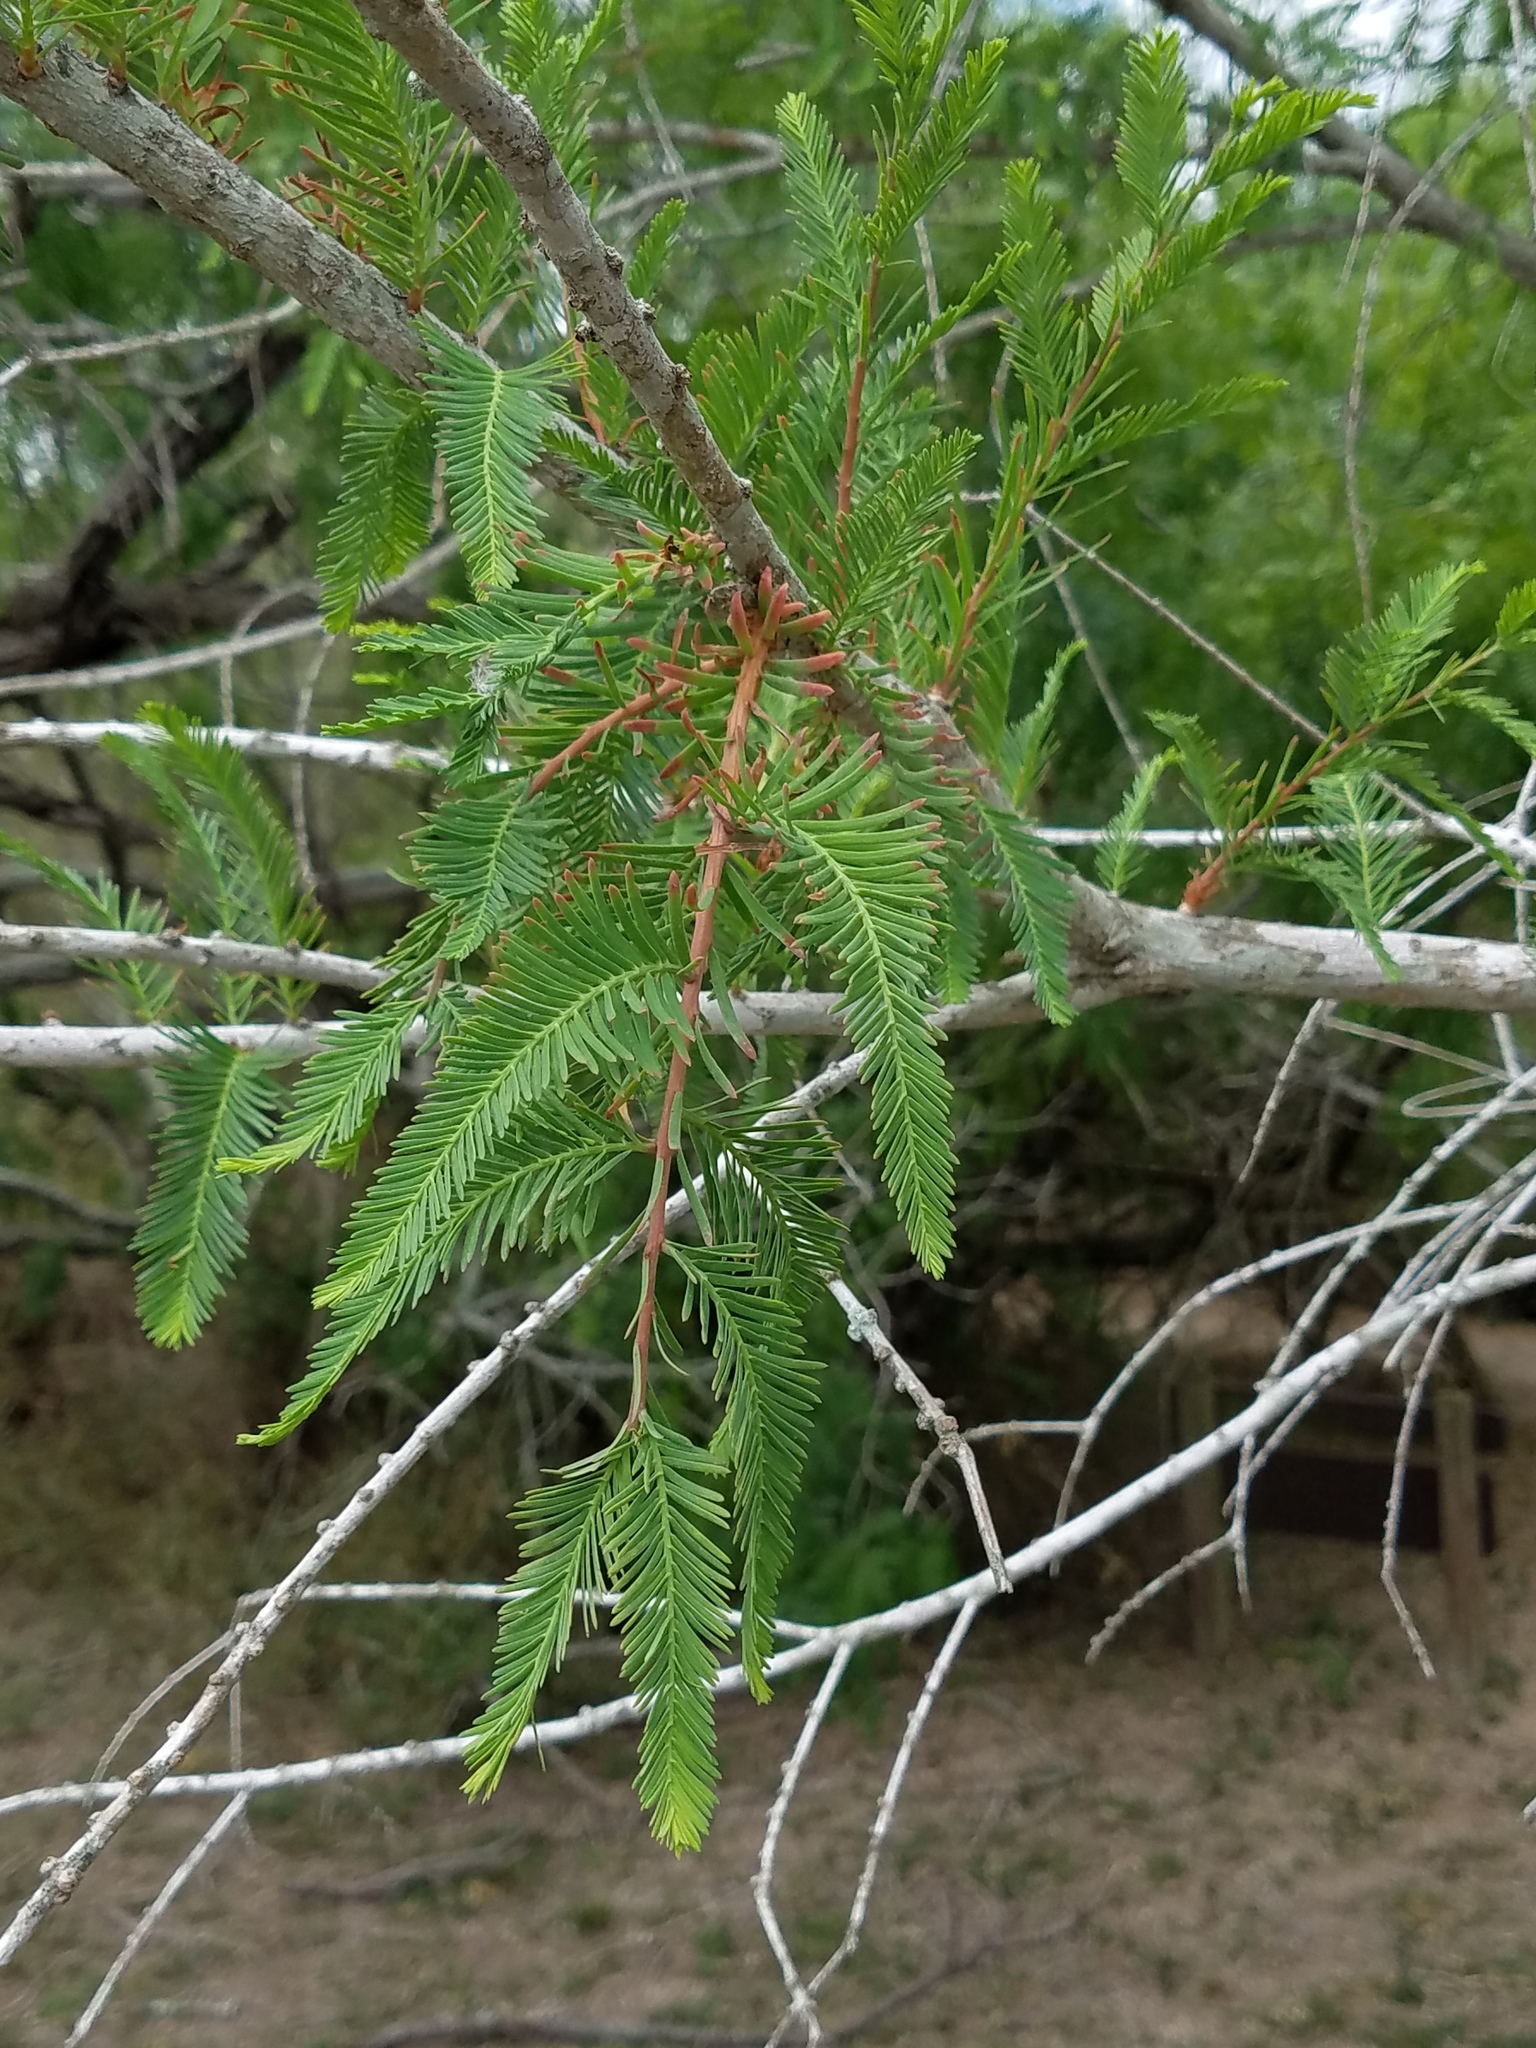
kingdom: Plantae
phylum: Tracheophyta
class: Pinopsida
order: Pinales
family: Cupressaceae
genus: Taxodium
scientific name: Taxodium mucronatum
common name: Montezume bald cypress
